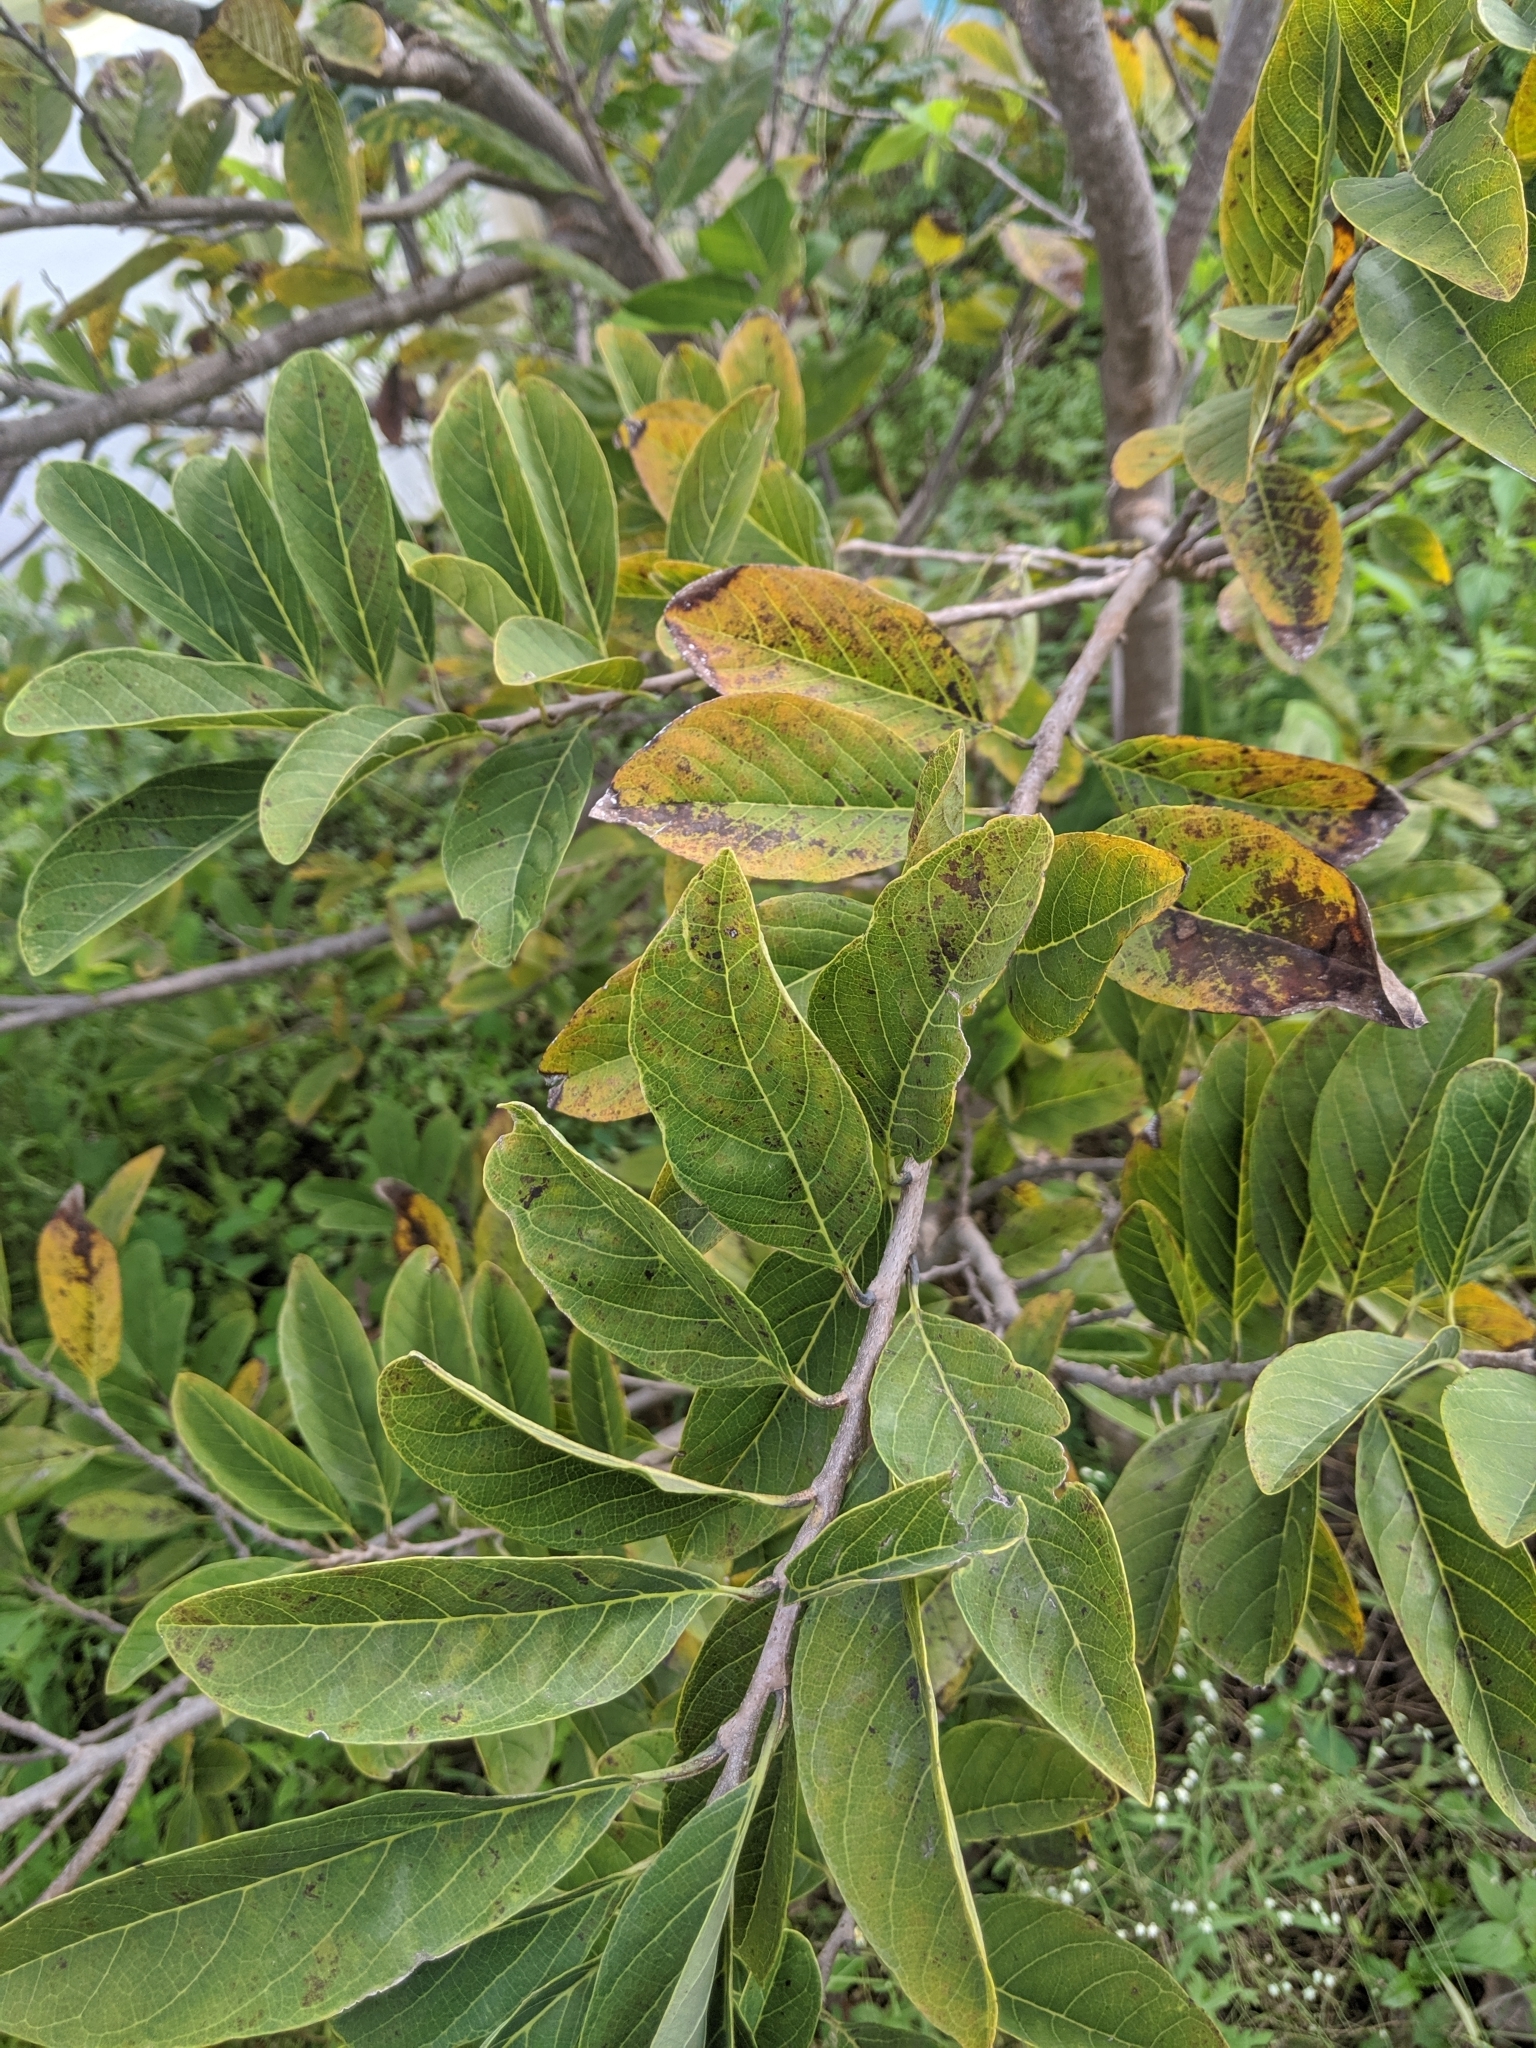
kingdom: Plantae
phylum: Tracheophyta
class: Magnoliopsida
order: Magnoliales
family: Annonaceae
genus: Annona
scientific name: Annona squamosa
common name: Custard-apple
